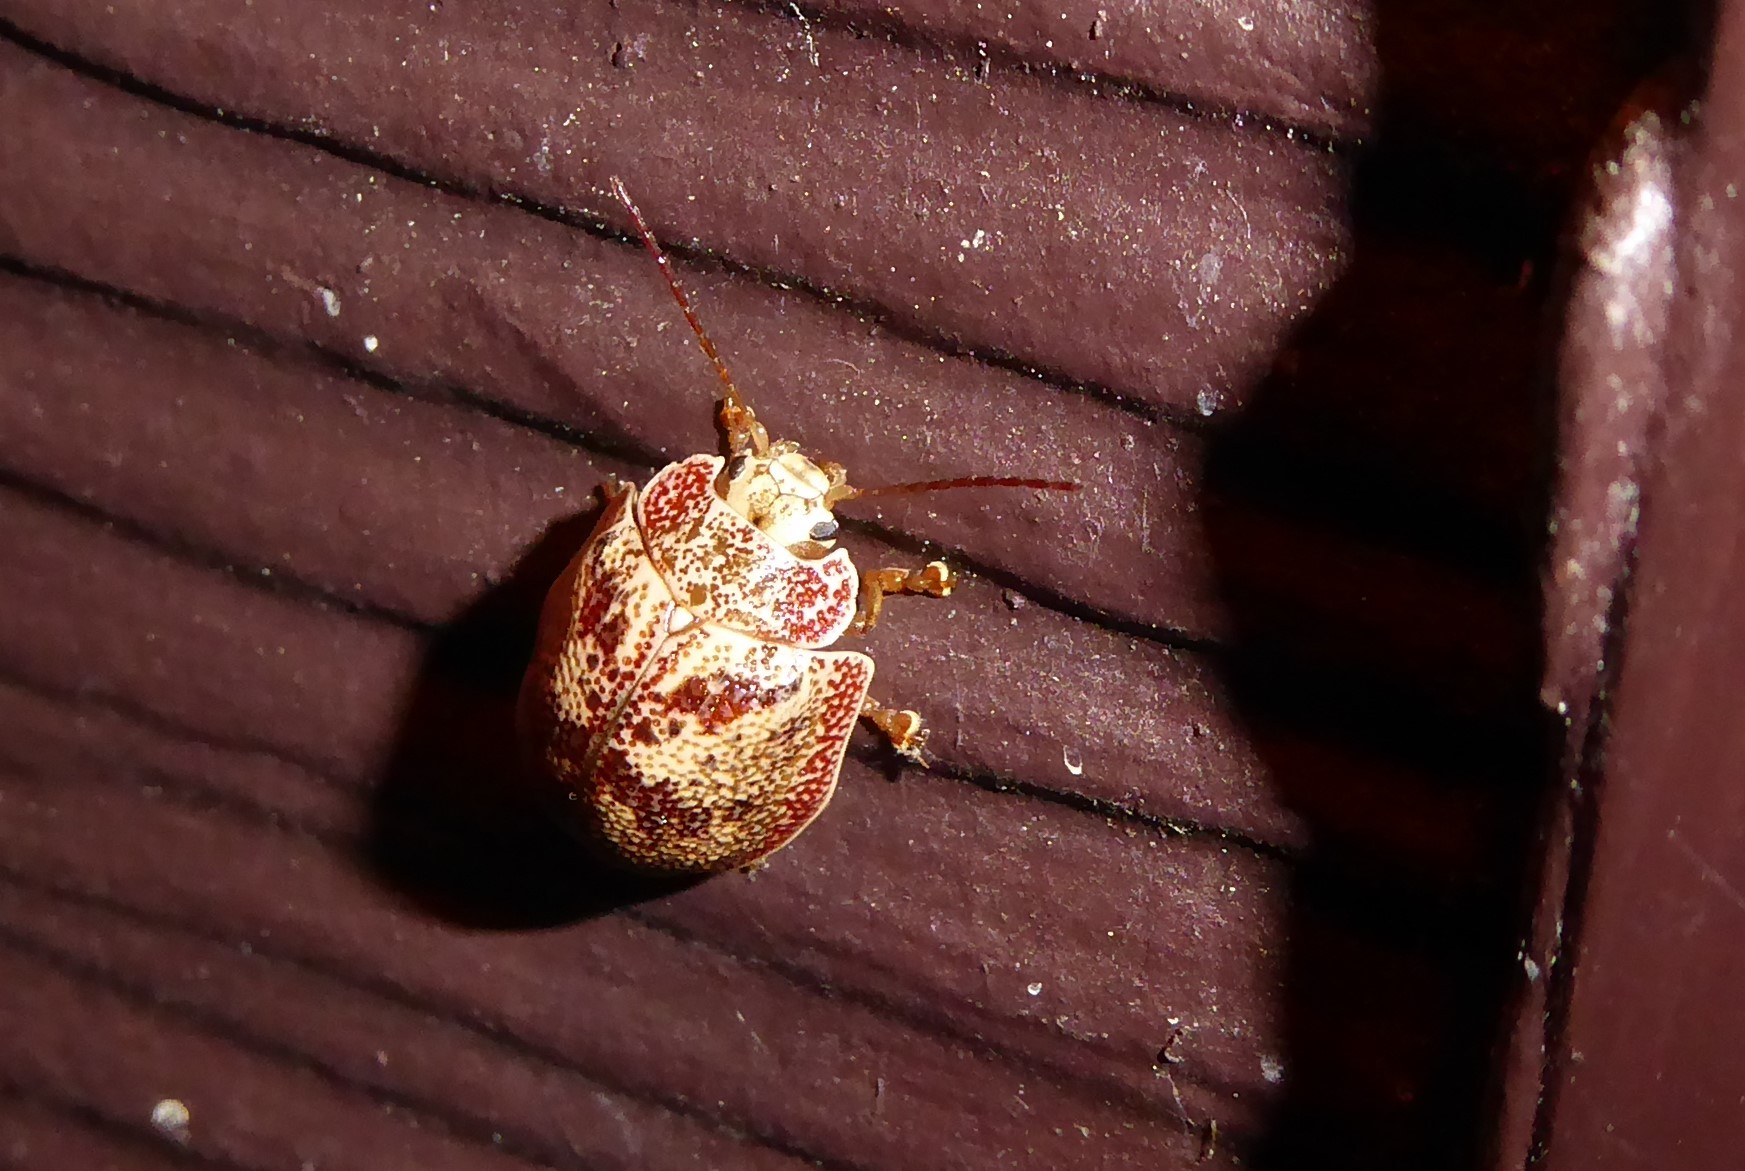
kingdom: Animalia
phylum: Arthropoda
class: Insecta
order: Coleoptera
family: Chrysomelidae
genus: Paropsis
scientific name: Paropsis charybdis
